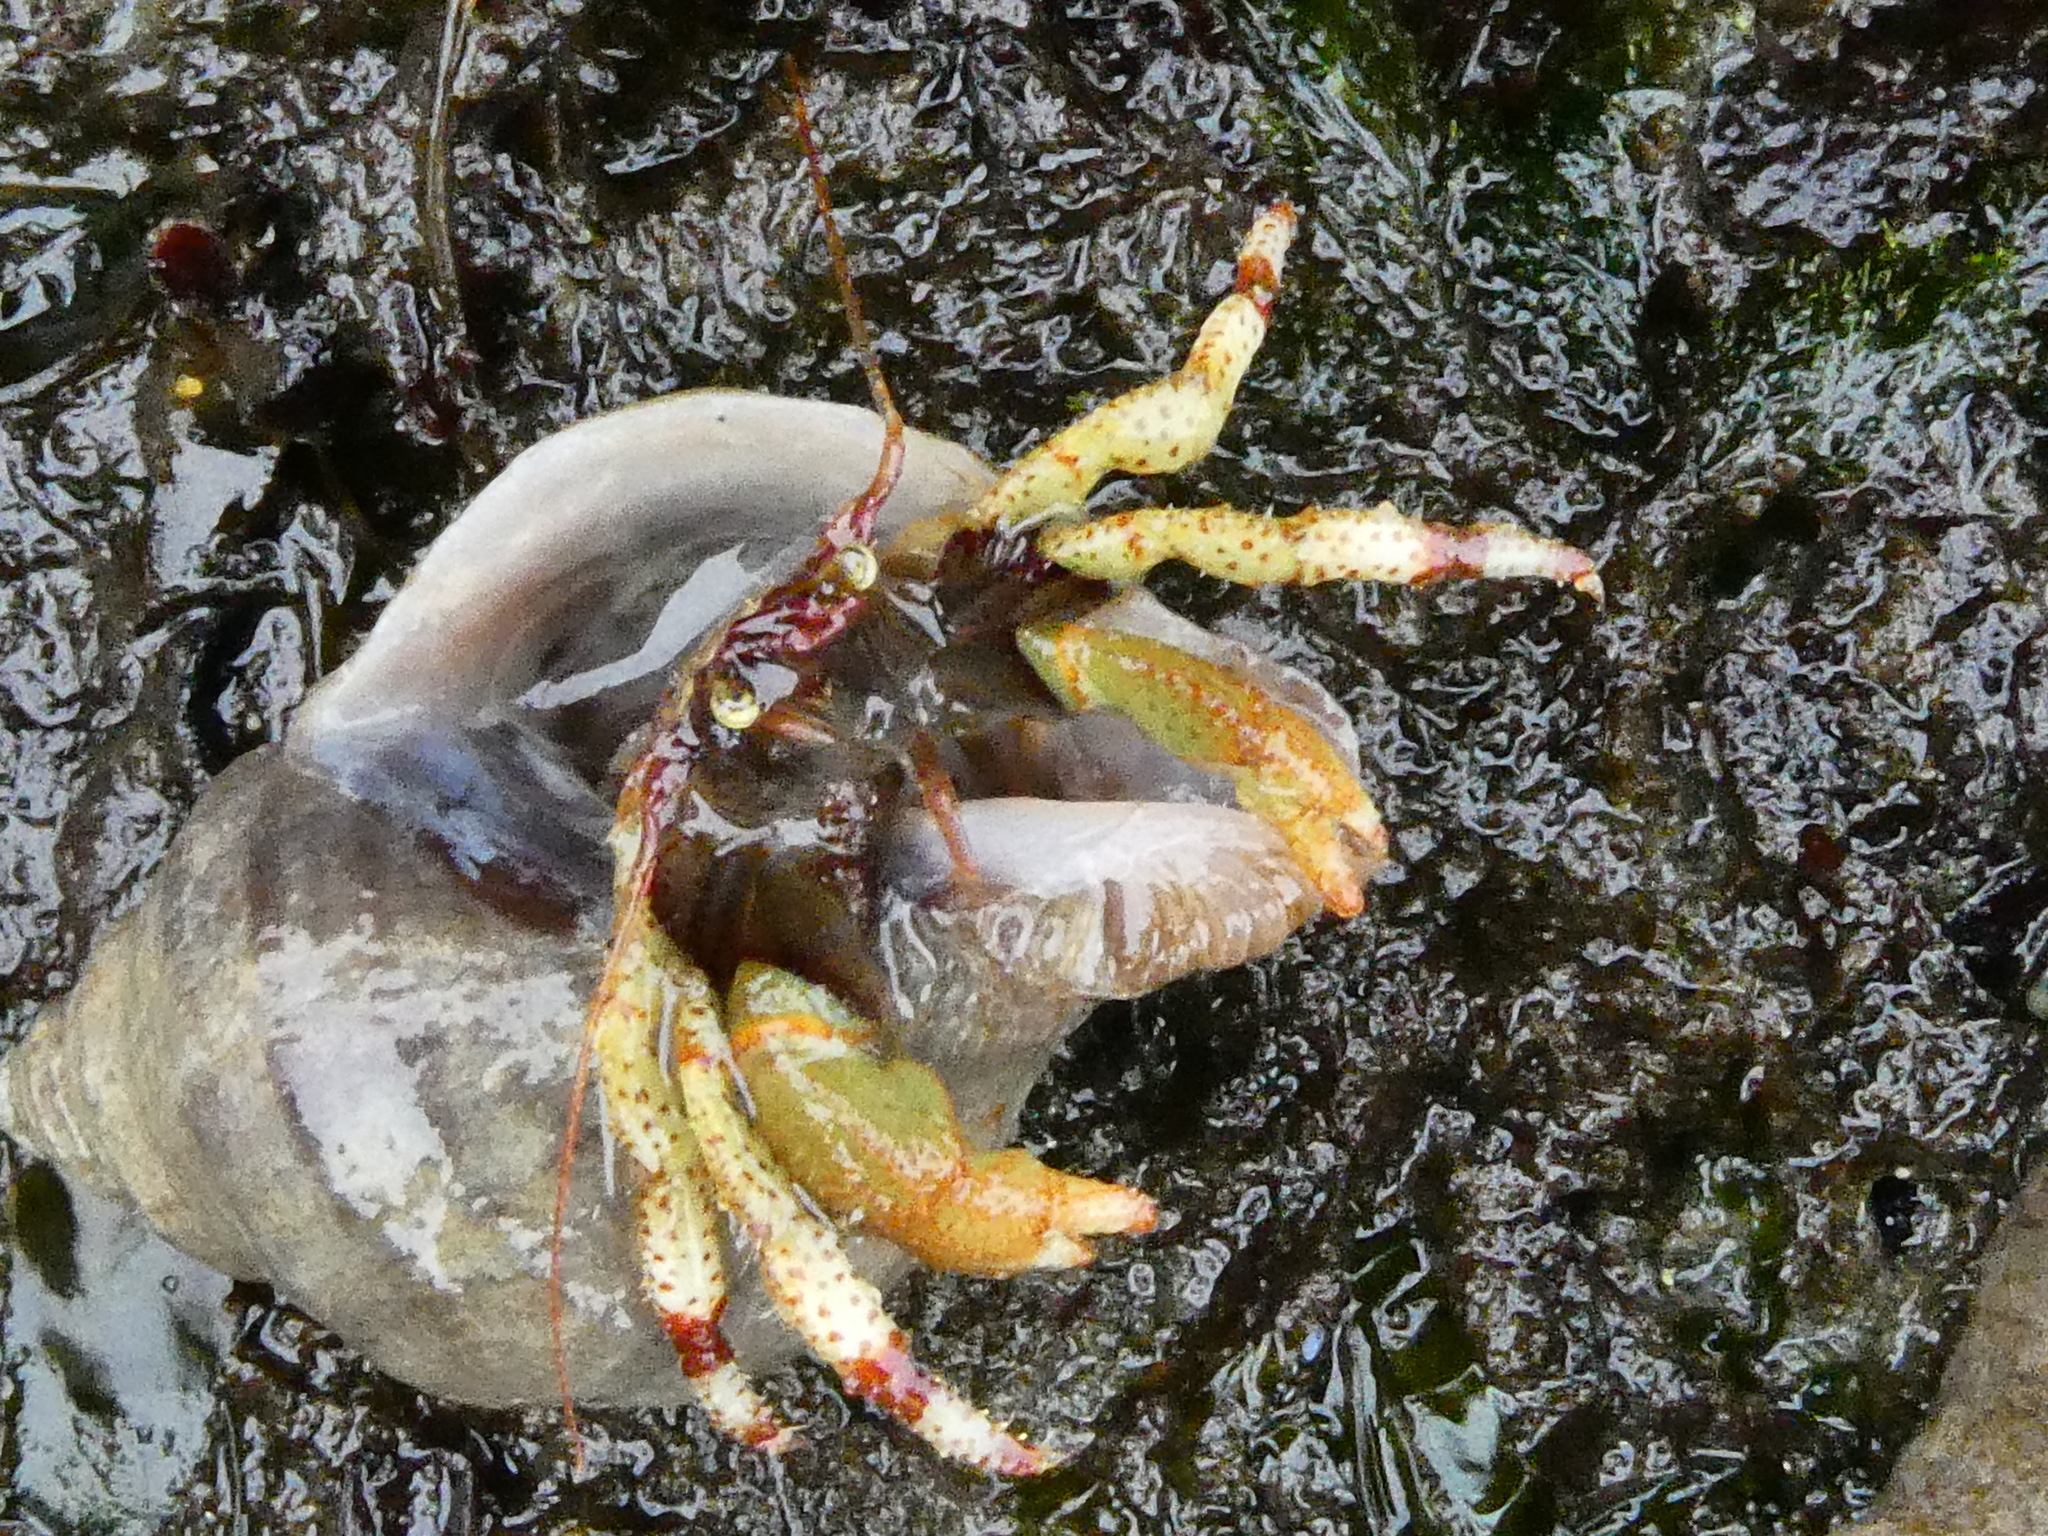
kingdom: Animalia
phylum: Arthropoda
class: Malacostraca
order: Decapoda
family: Paguridae
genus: Pagurus
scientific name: Pagurus beringanus
